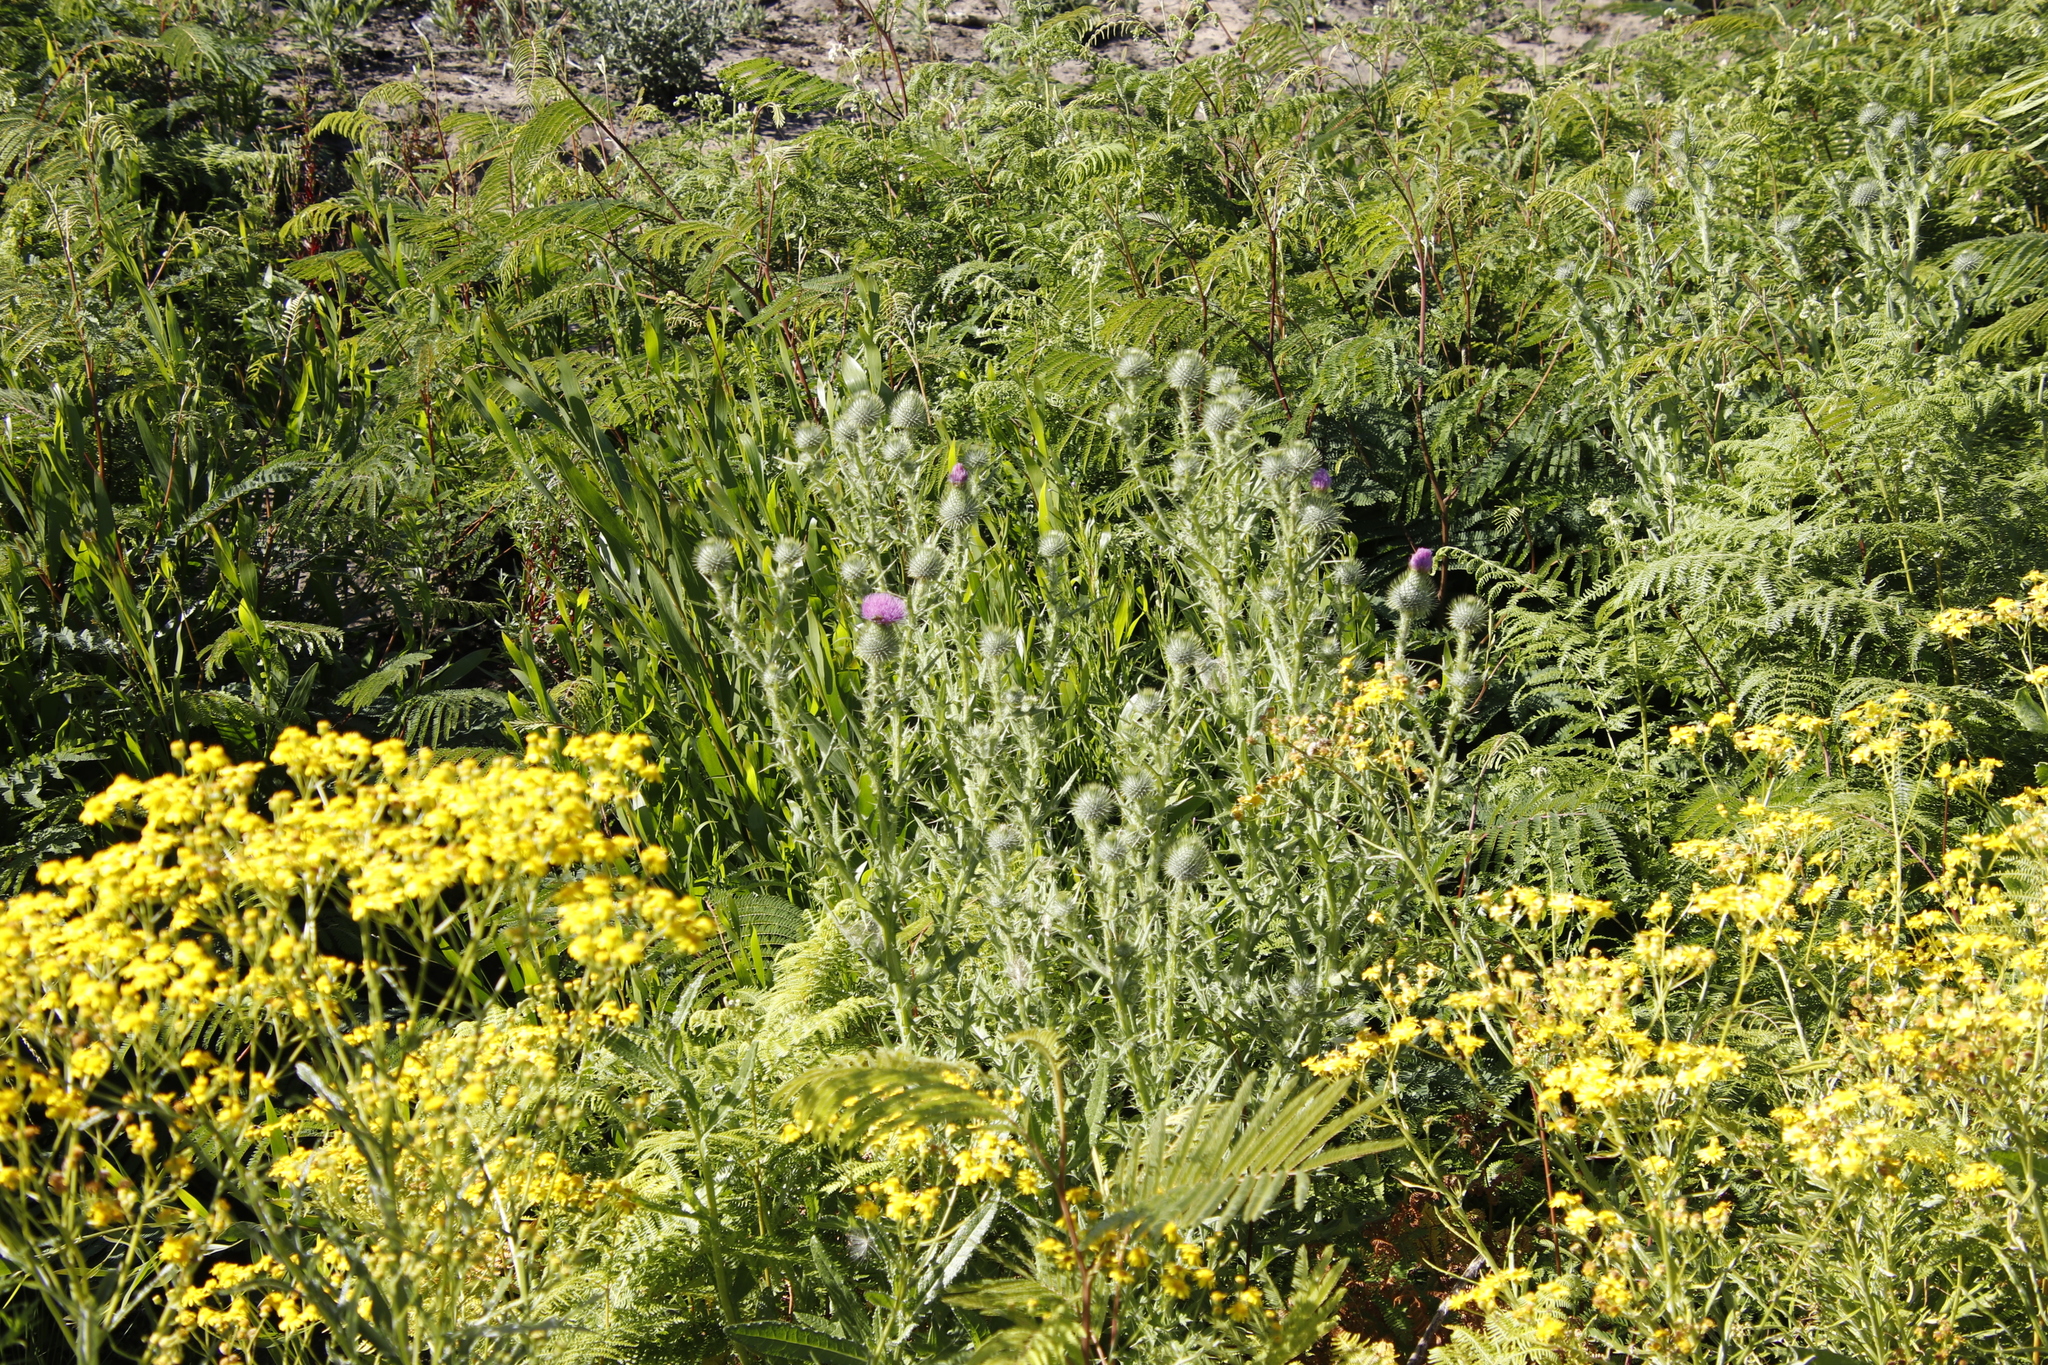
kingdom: Plantae
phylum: Tracheophyta
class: Magnoliopsida
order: Asterales
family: Asteraceae
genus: Cirsium
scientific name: Cirsium vulgare
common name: Bull thistle
